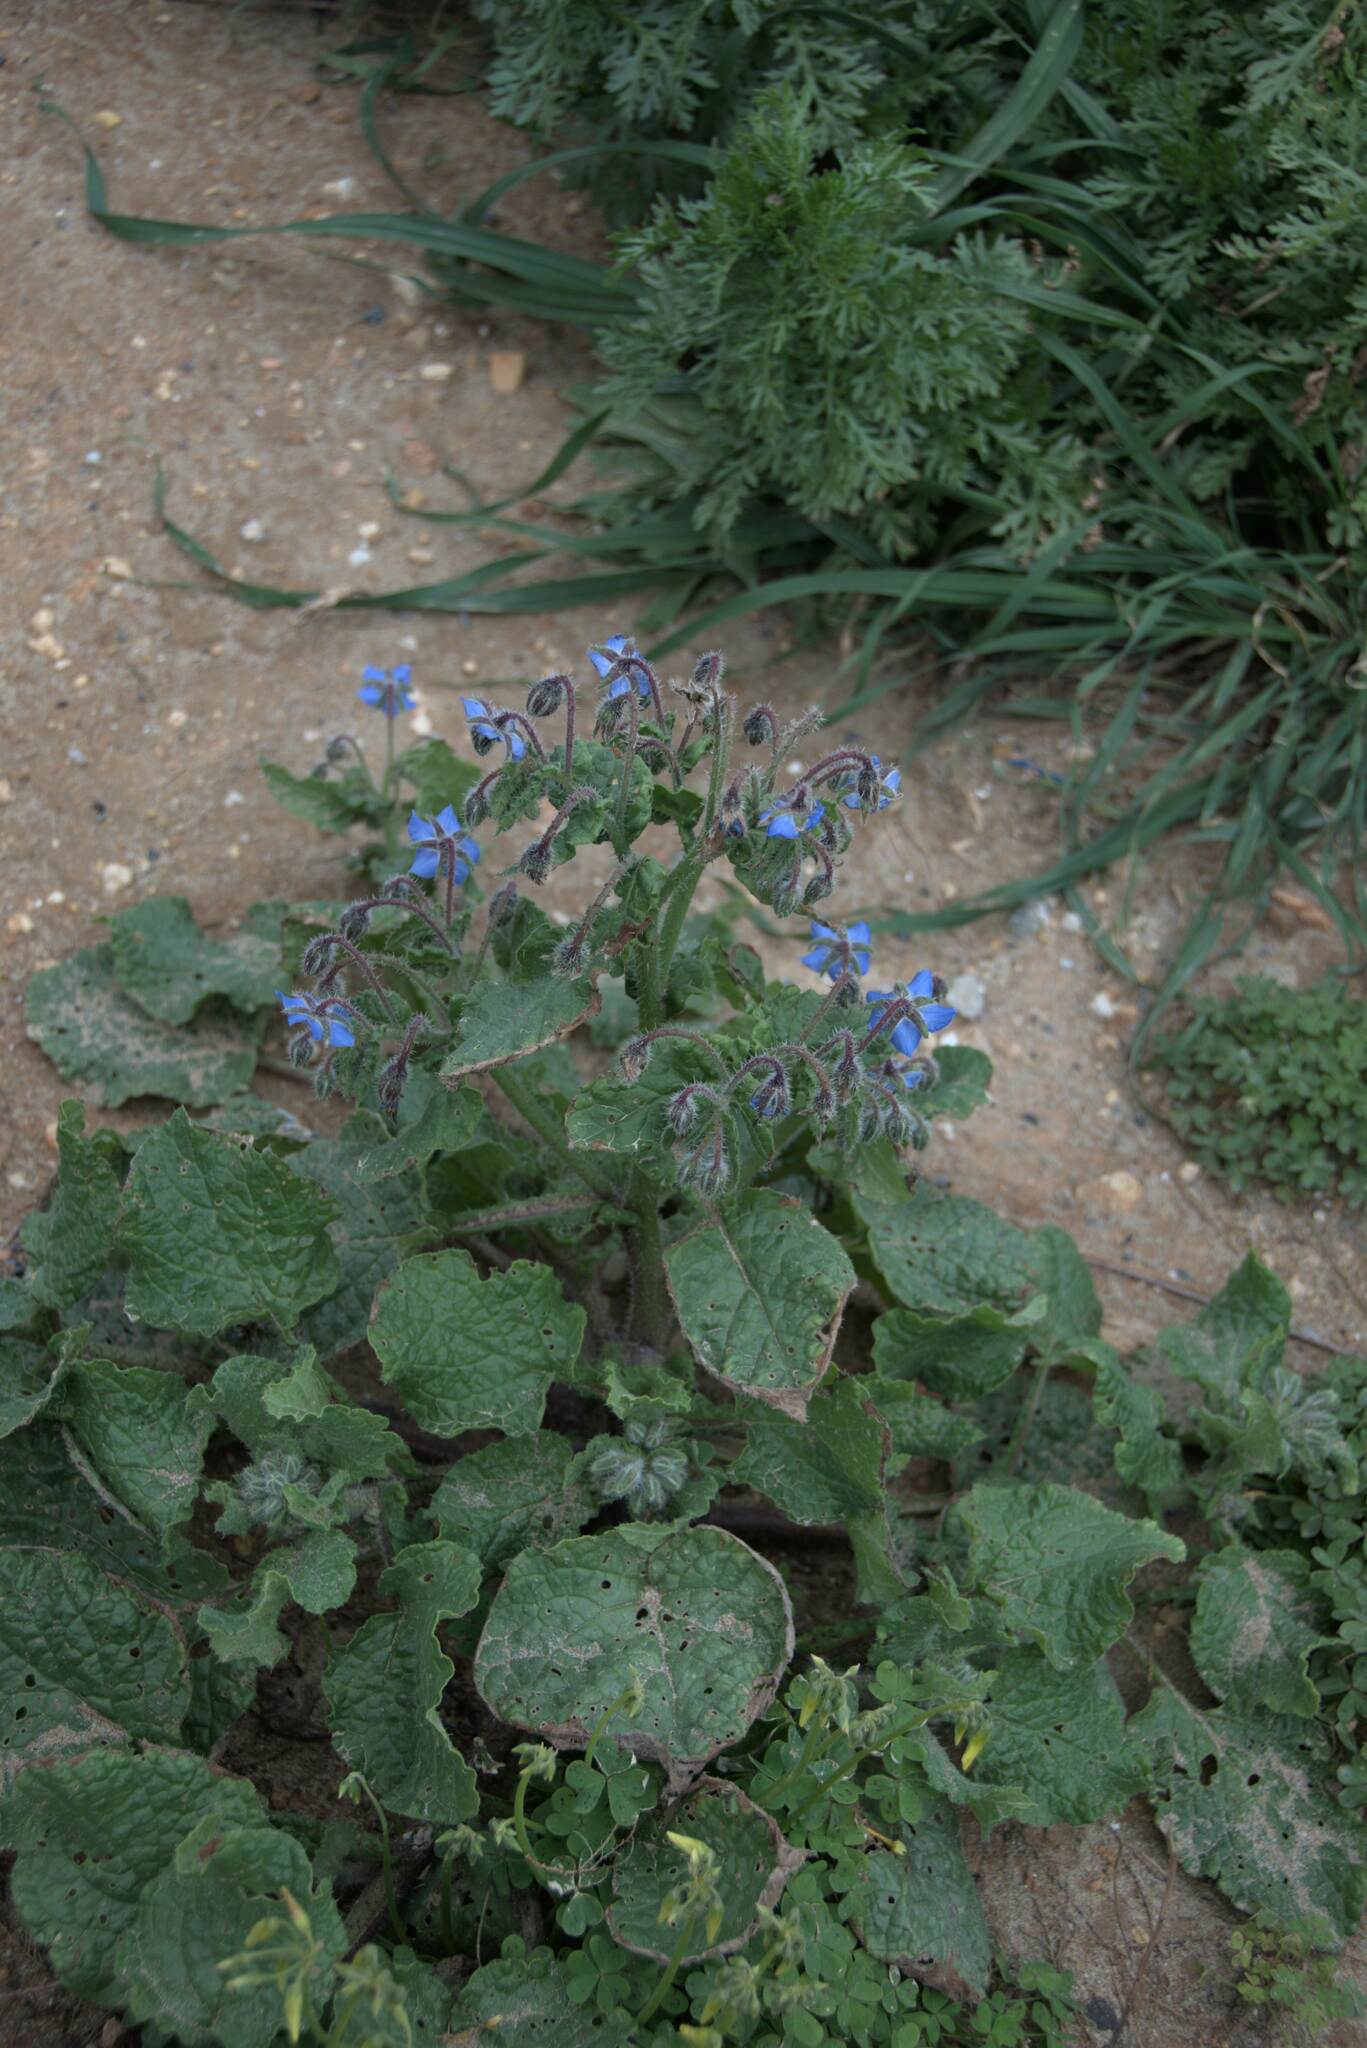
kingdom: Plantae
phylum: Tracheophyta
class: Magnoliopsida
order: Boraginales
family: Boraginaceae
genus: Borago
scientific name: Borago officinalis
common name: Borage
